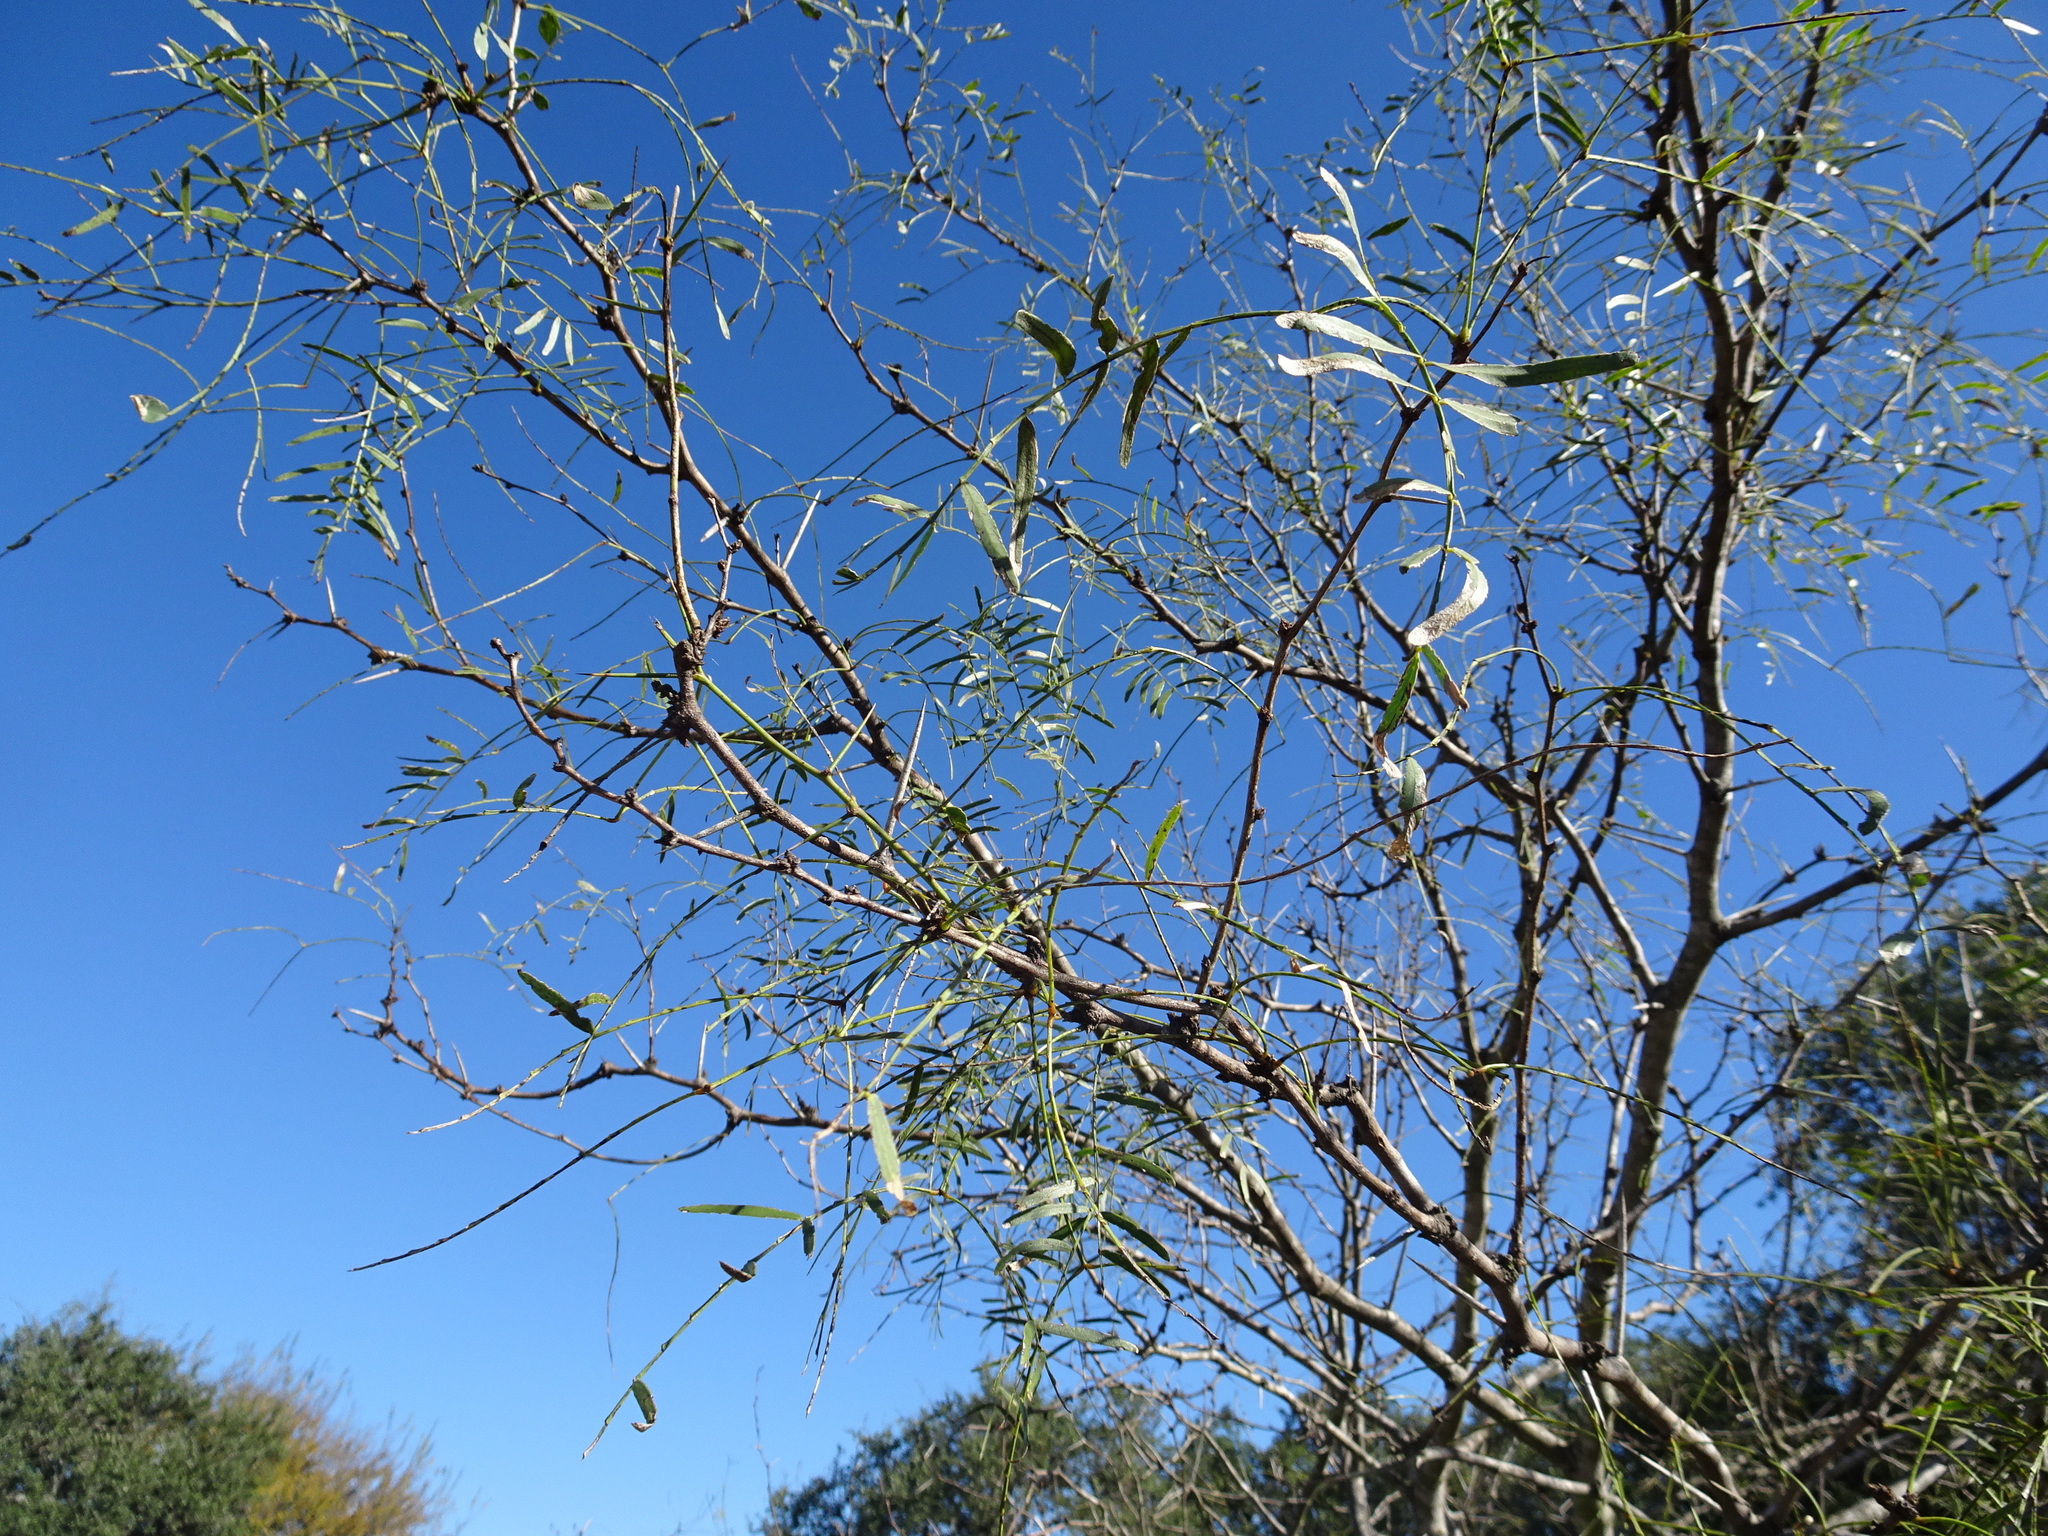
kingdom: Plantae
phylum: Tracheophyta
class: Magnoliopsida
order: Fabales
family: Fabaceae
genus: Prosopis
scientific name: Prosopis glandulosa
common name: Honey mesquite
